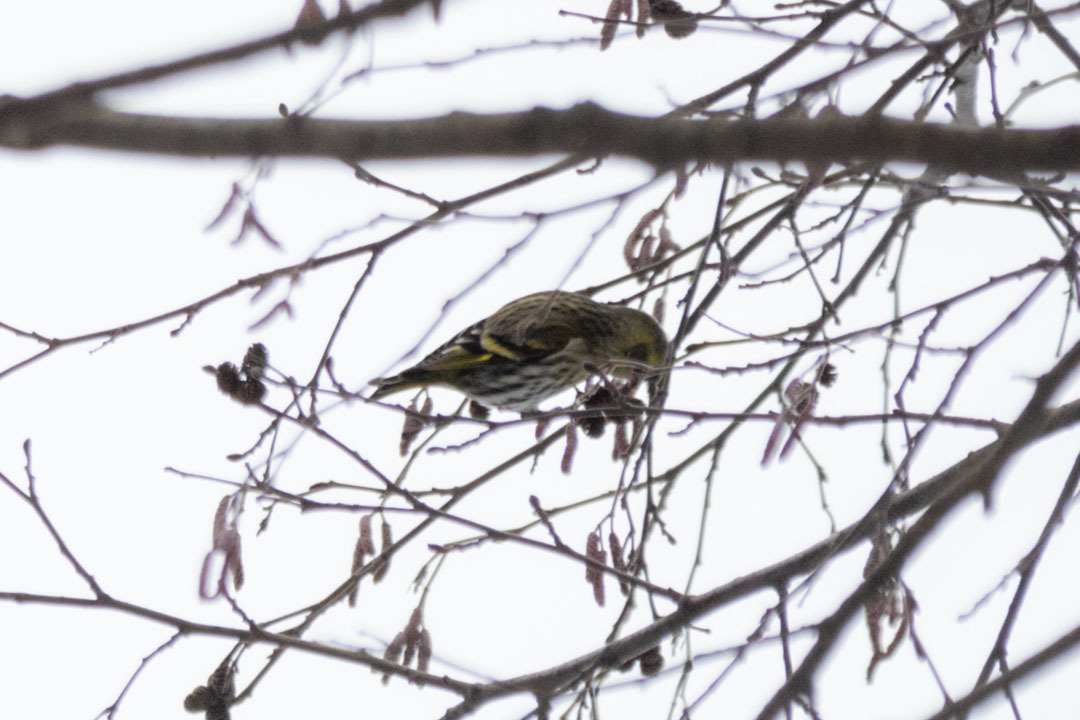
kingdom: Animalia
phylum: Chordata
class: Aves
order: Passeriformes
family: Fringillidae
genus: Spinus
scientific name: Spinus spinus
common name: Eurasian siskin
